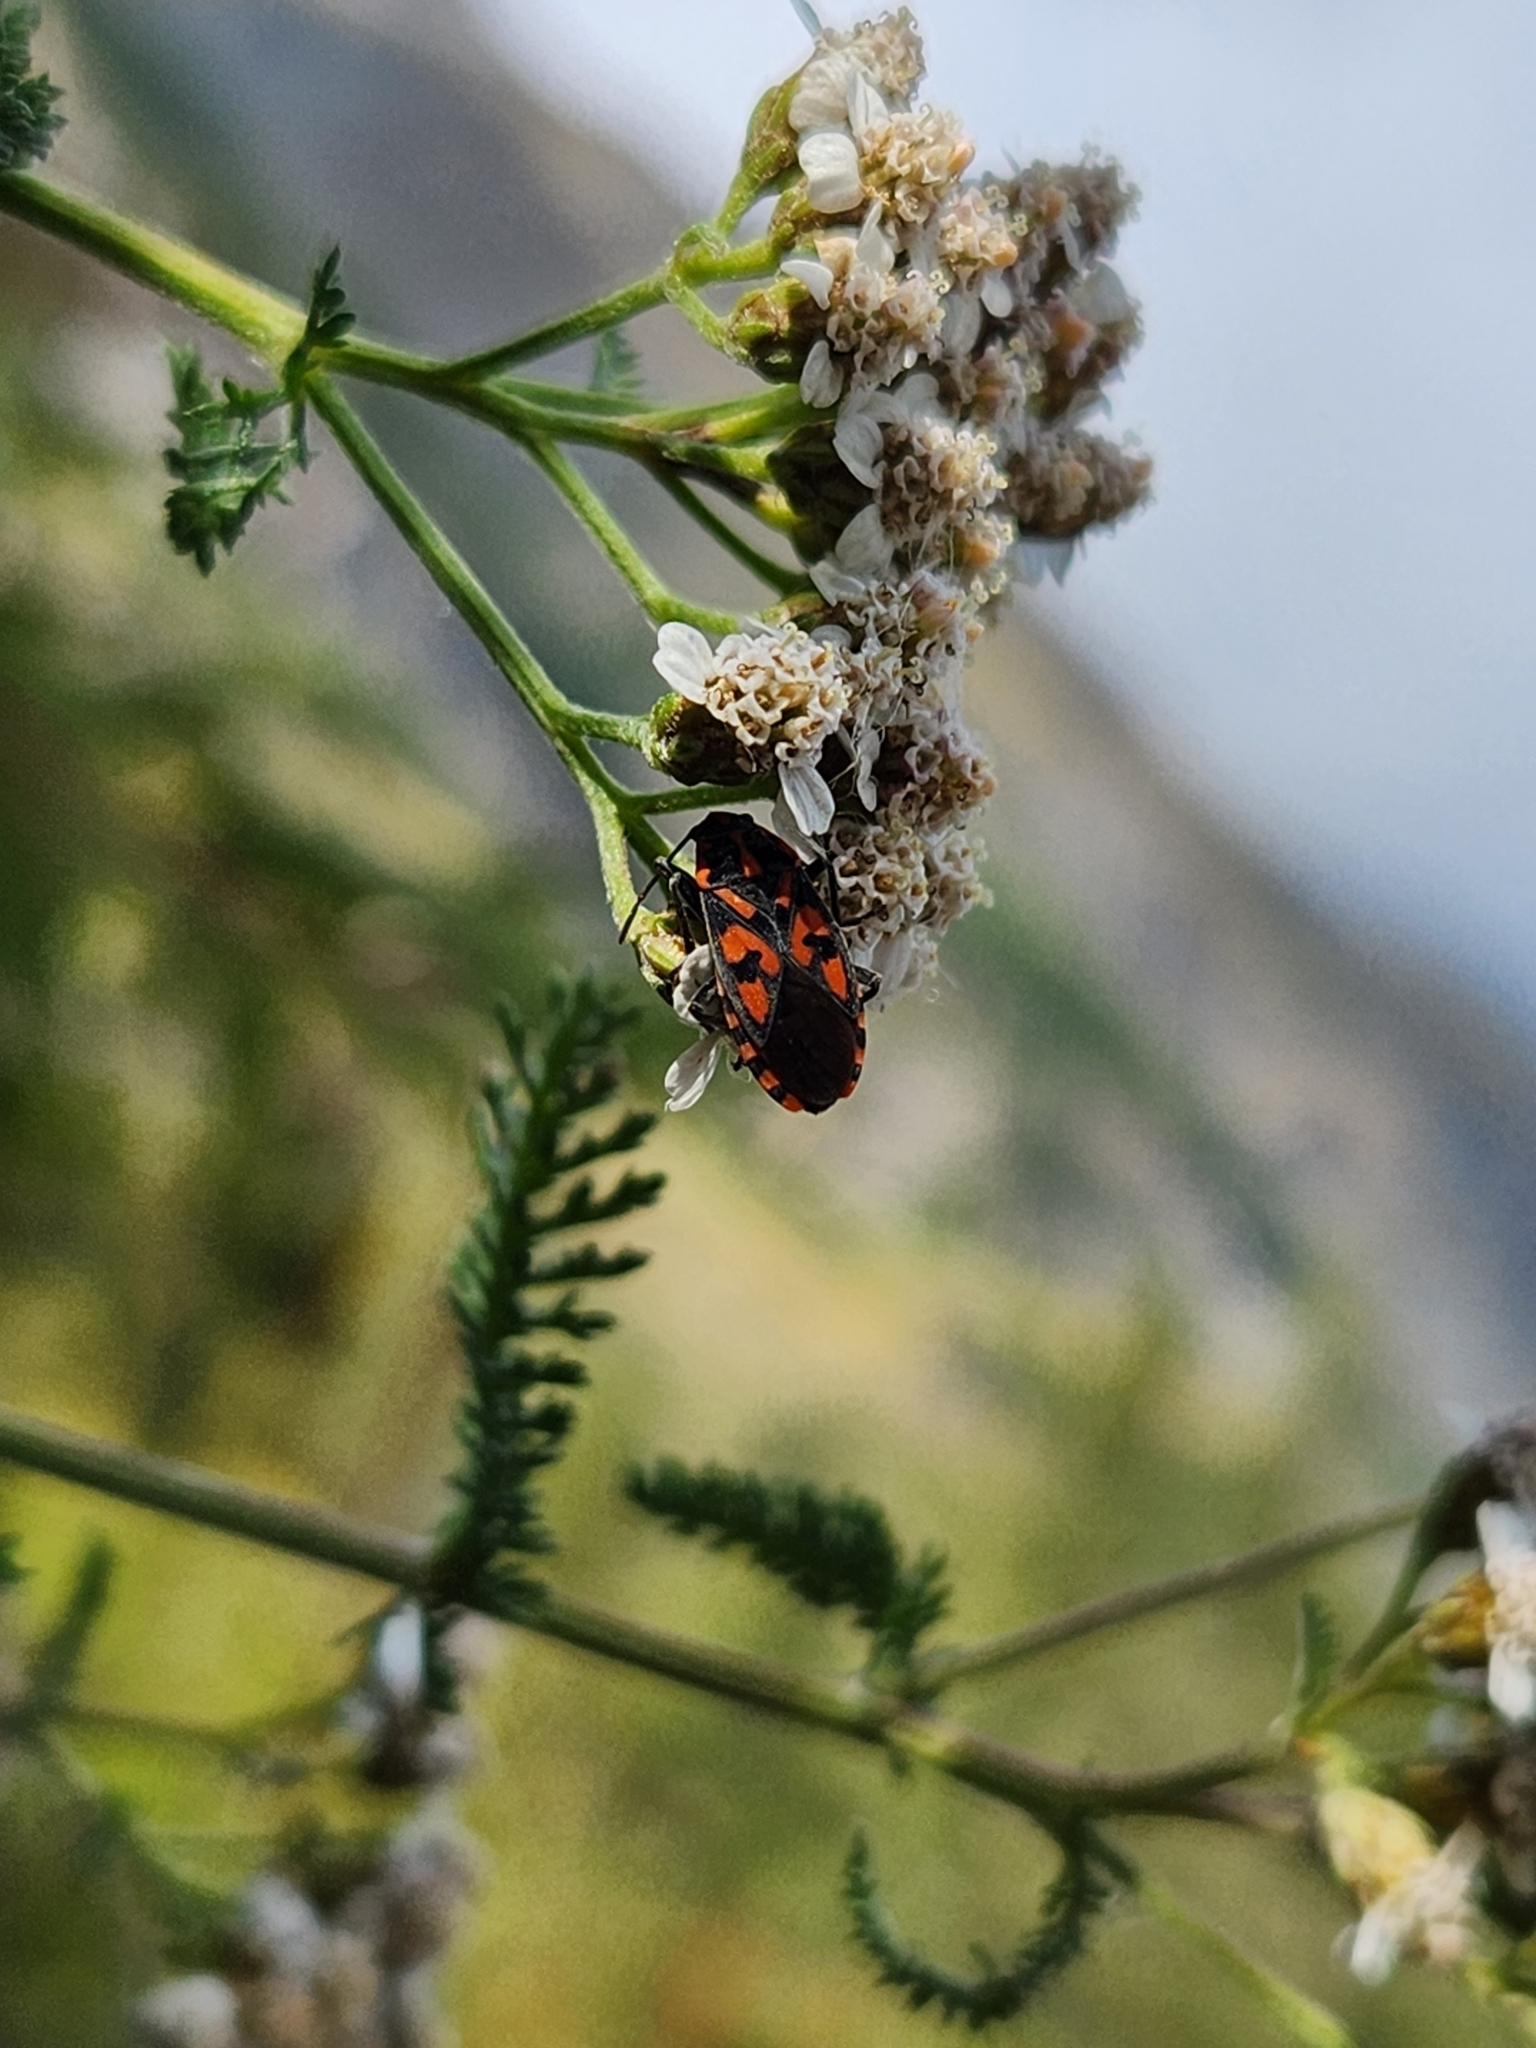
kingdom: Animalia
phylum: Arthropoda
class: Insecta
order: Hemiptera
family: Lygaeidae
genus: Spilostethus
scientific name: Spilostethus saxatilis
